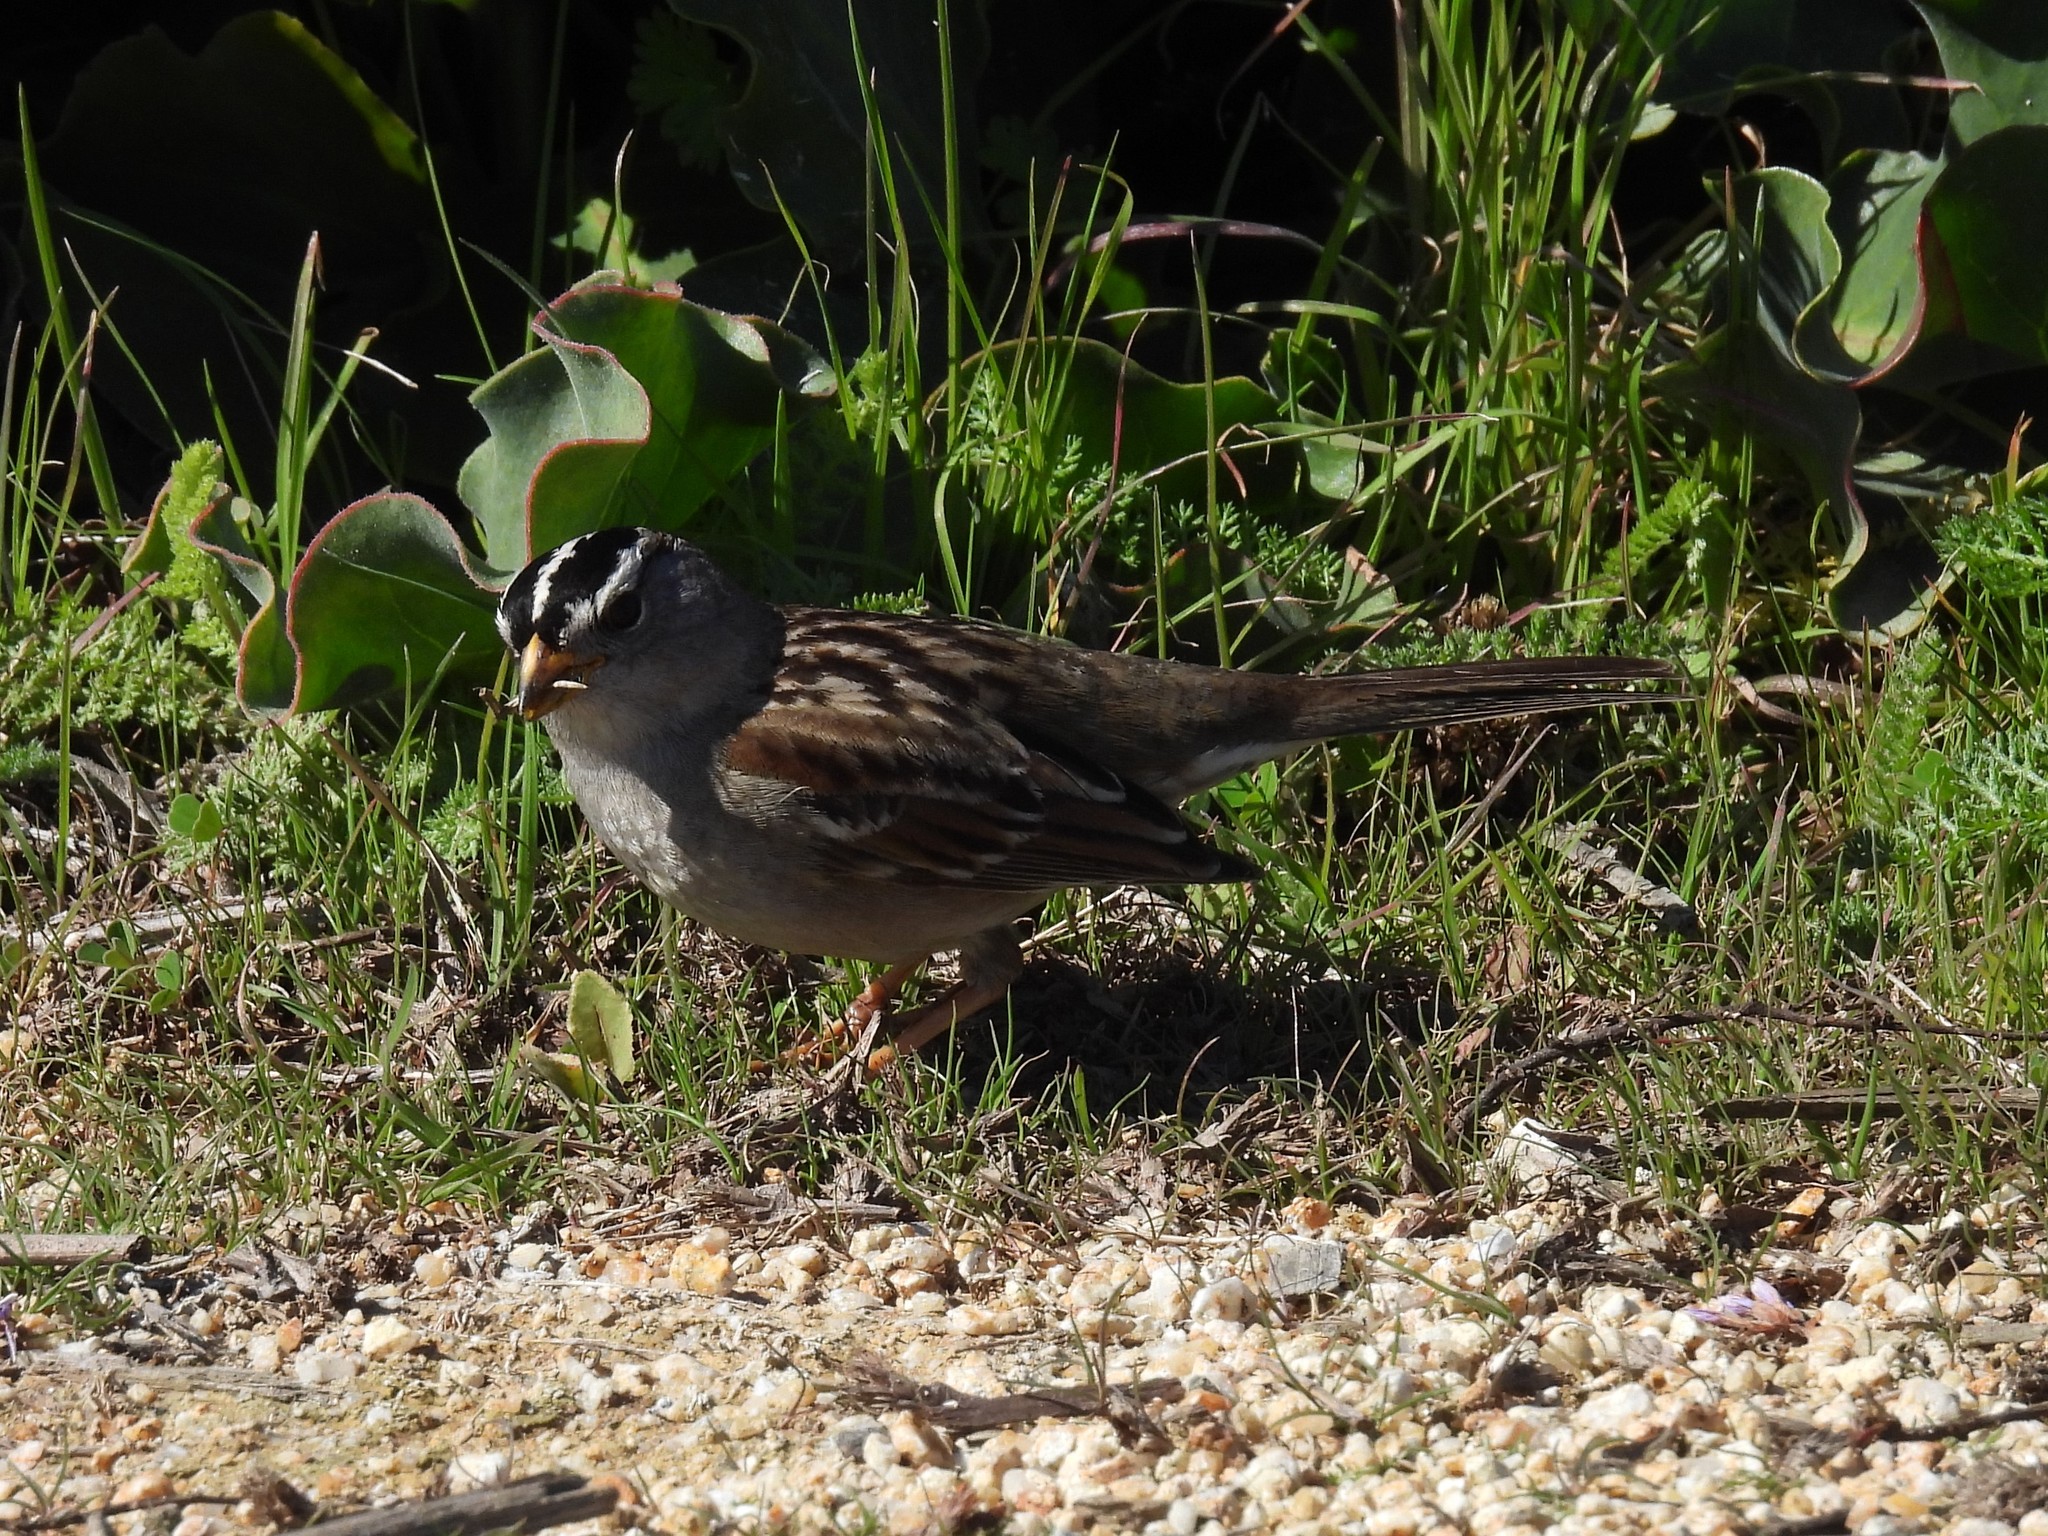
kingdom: Animalia
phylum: Chordata
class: Aves
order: Passeriformes
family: Passerellidae
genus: Zonotrichia
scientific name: Zonotrichia leucophrys
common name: White-crowned sparrow
